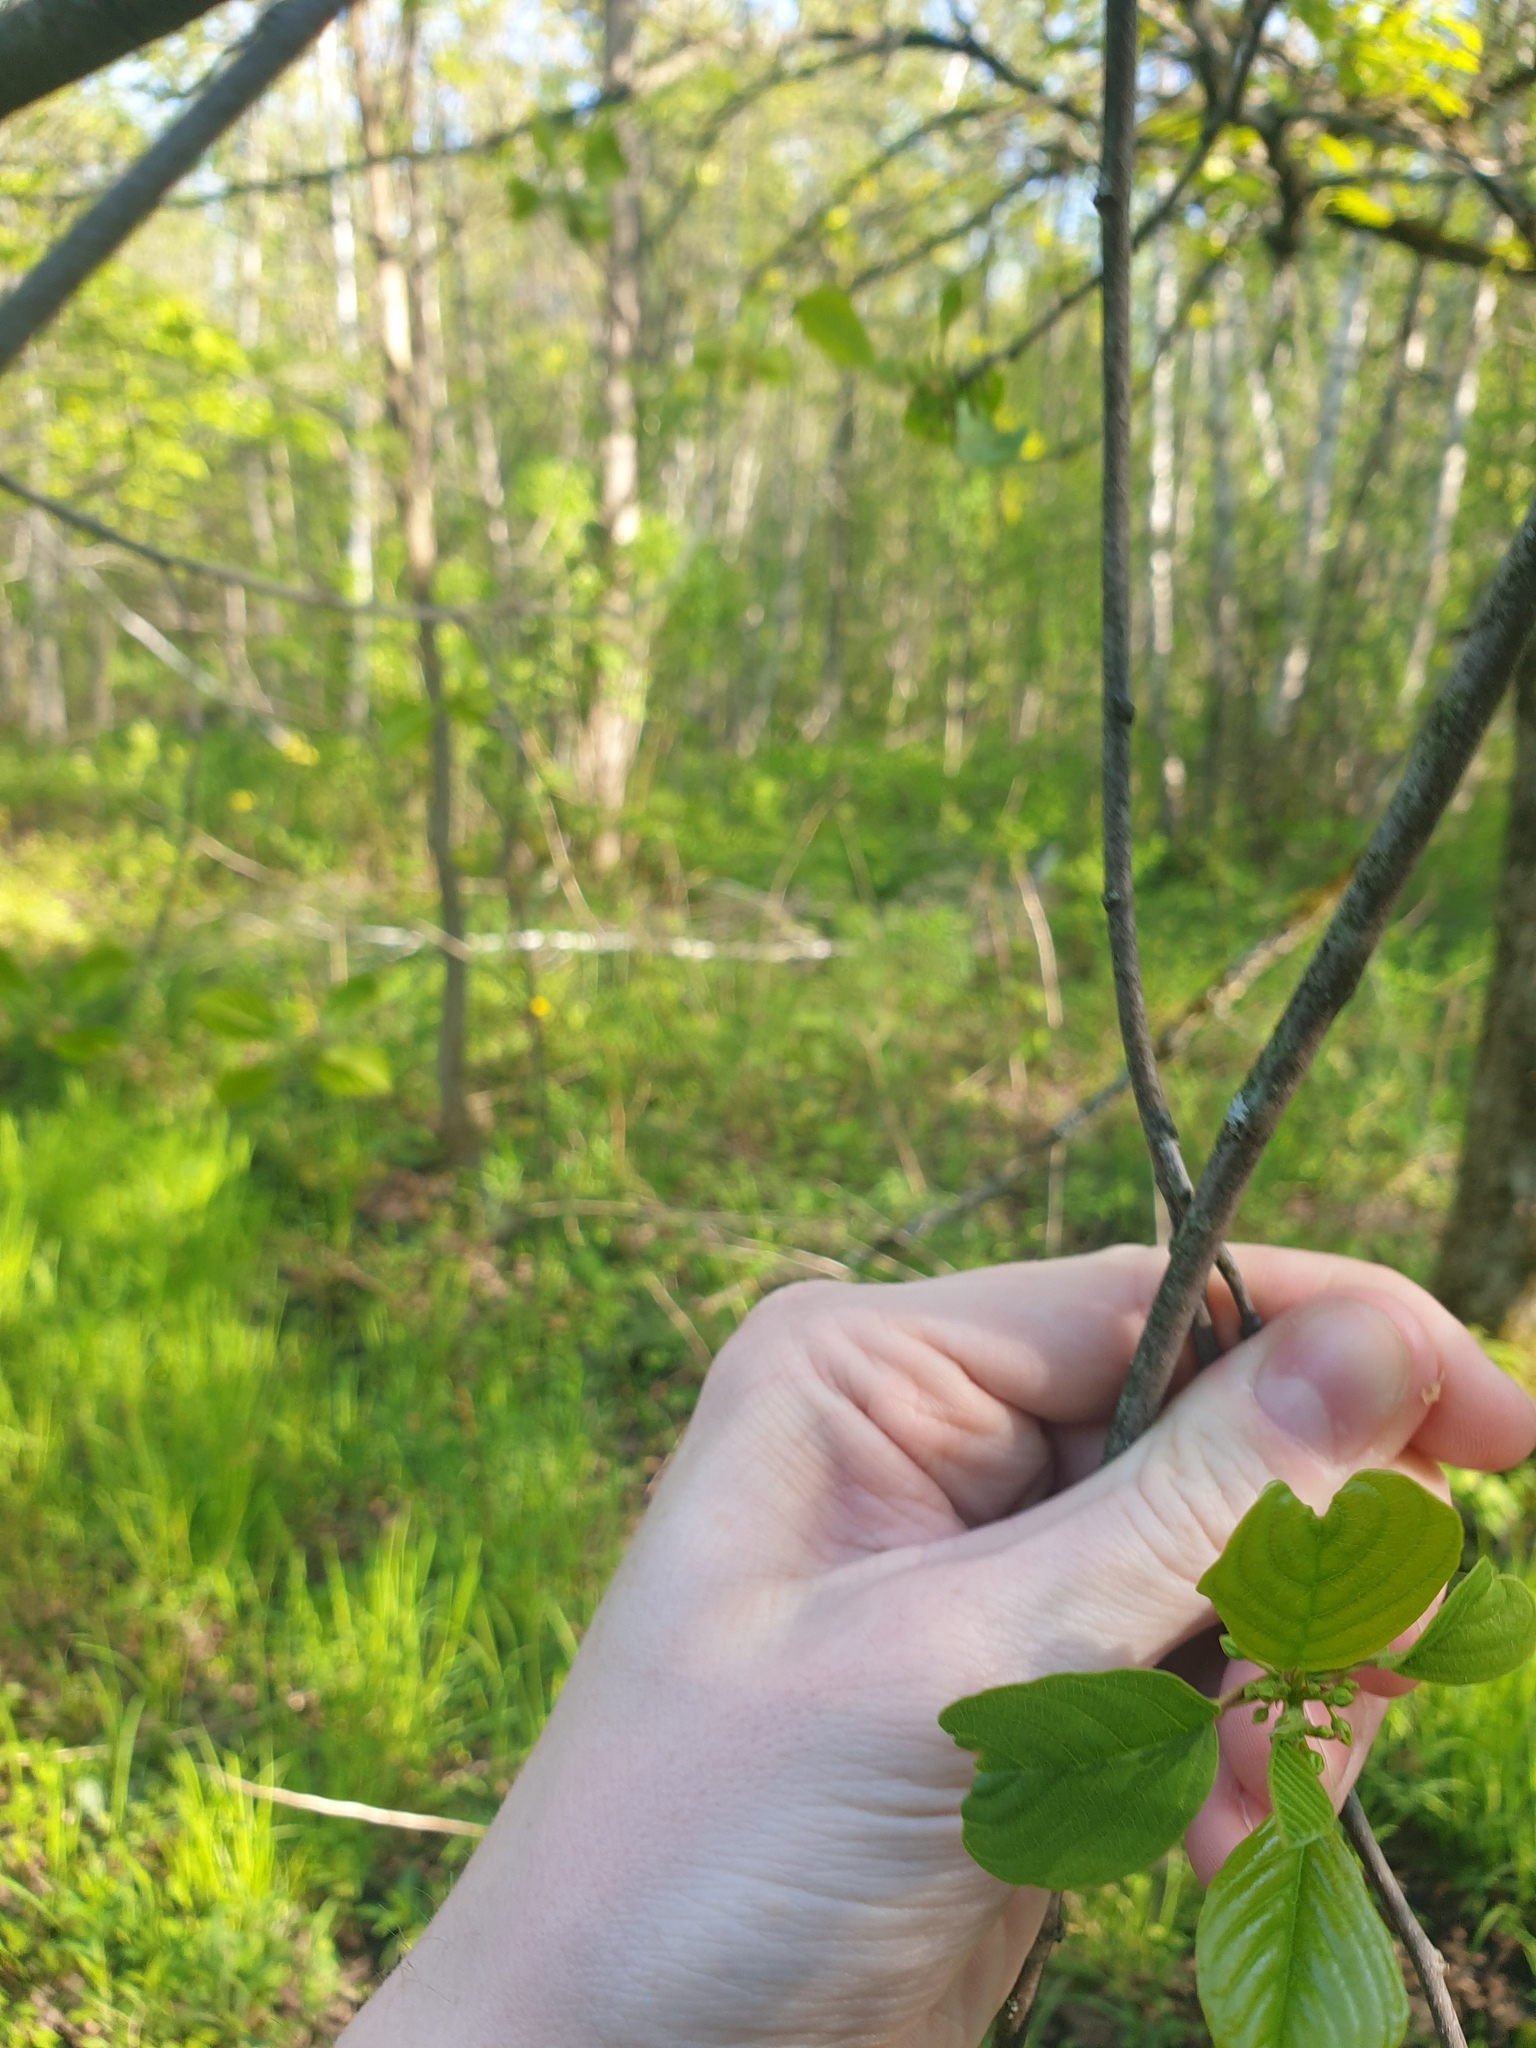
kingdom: Plantae
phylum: Tracheophyta
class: Magnoliopsida
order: Rosales
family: Rhamnaceae
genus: Frangula
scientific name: Frangula alnus
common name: Alder buckthorn
